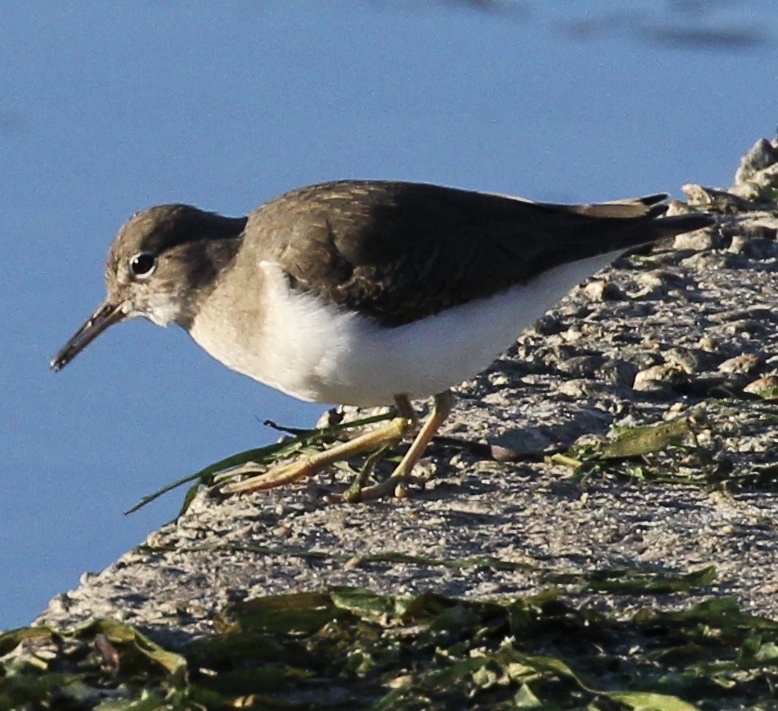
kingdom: Animalia
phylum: Chordata
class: Aves
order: Charadriiformes
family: Scolopacidae
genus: Actitis
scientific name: Actitis macularius
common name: Spotted sandpiper
